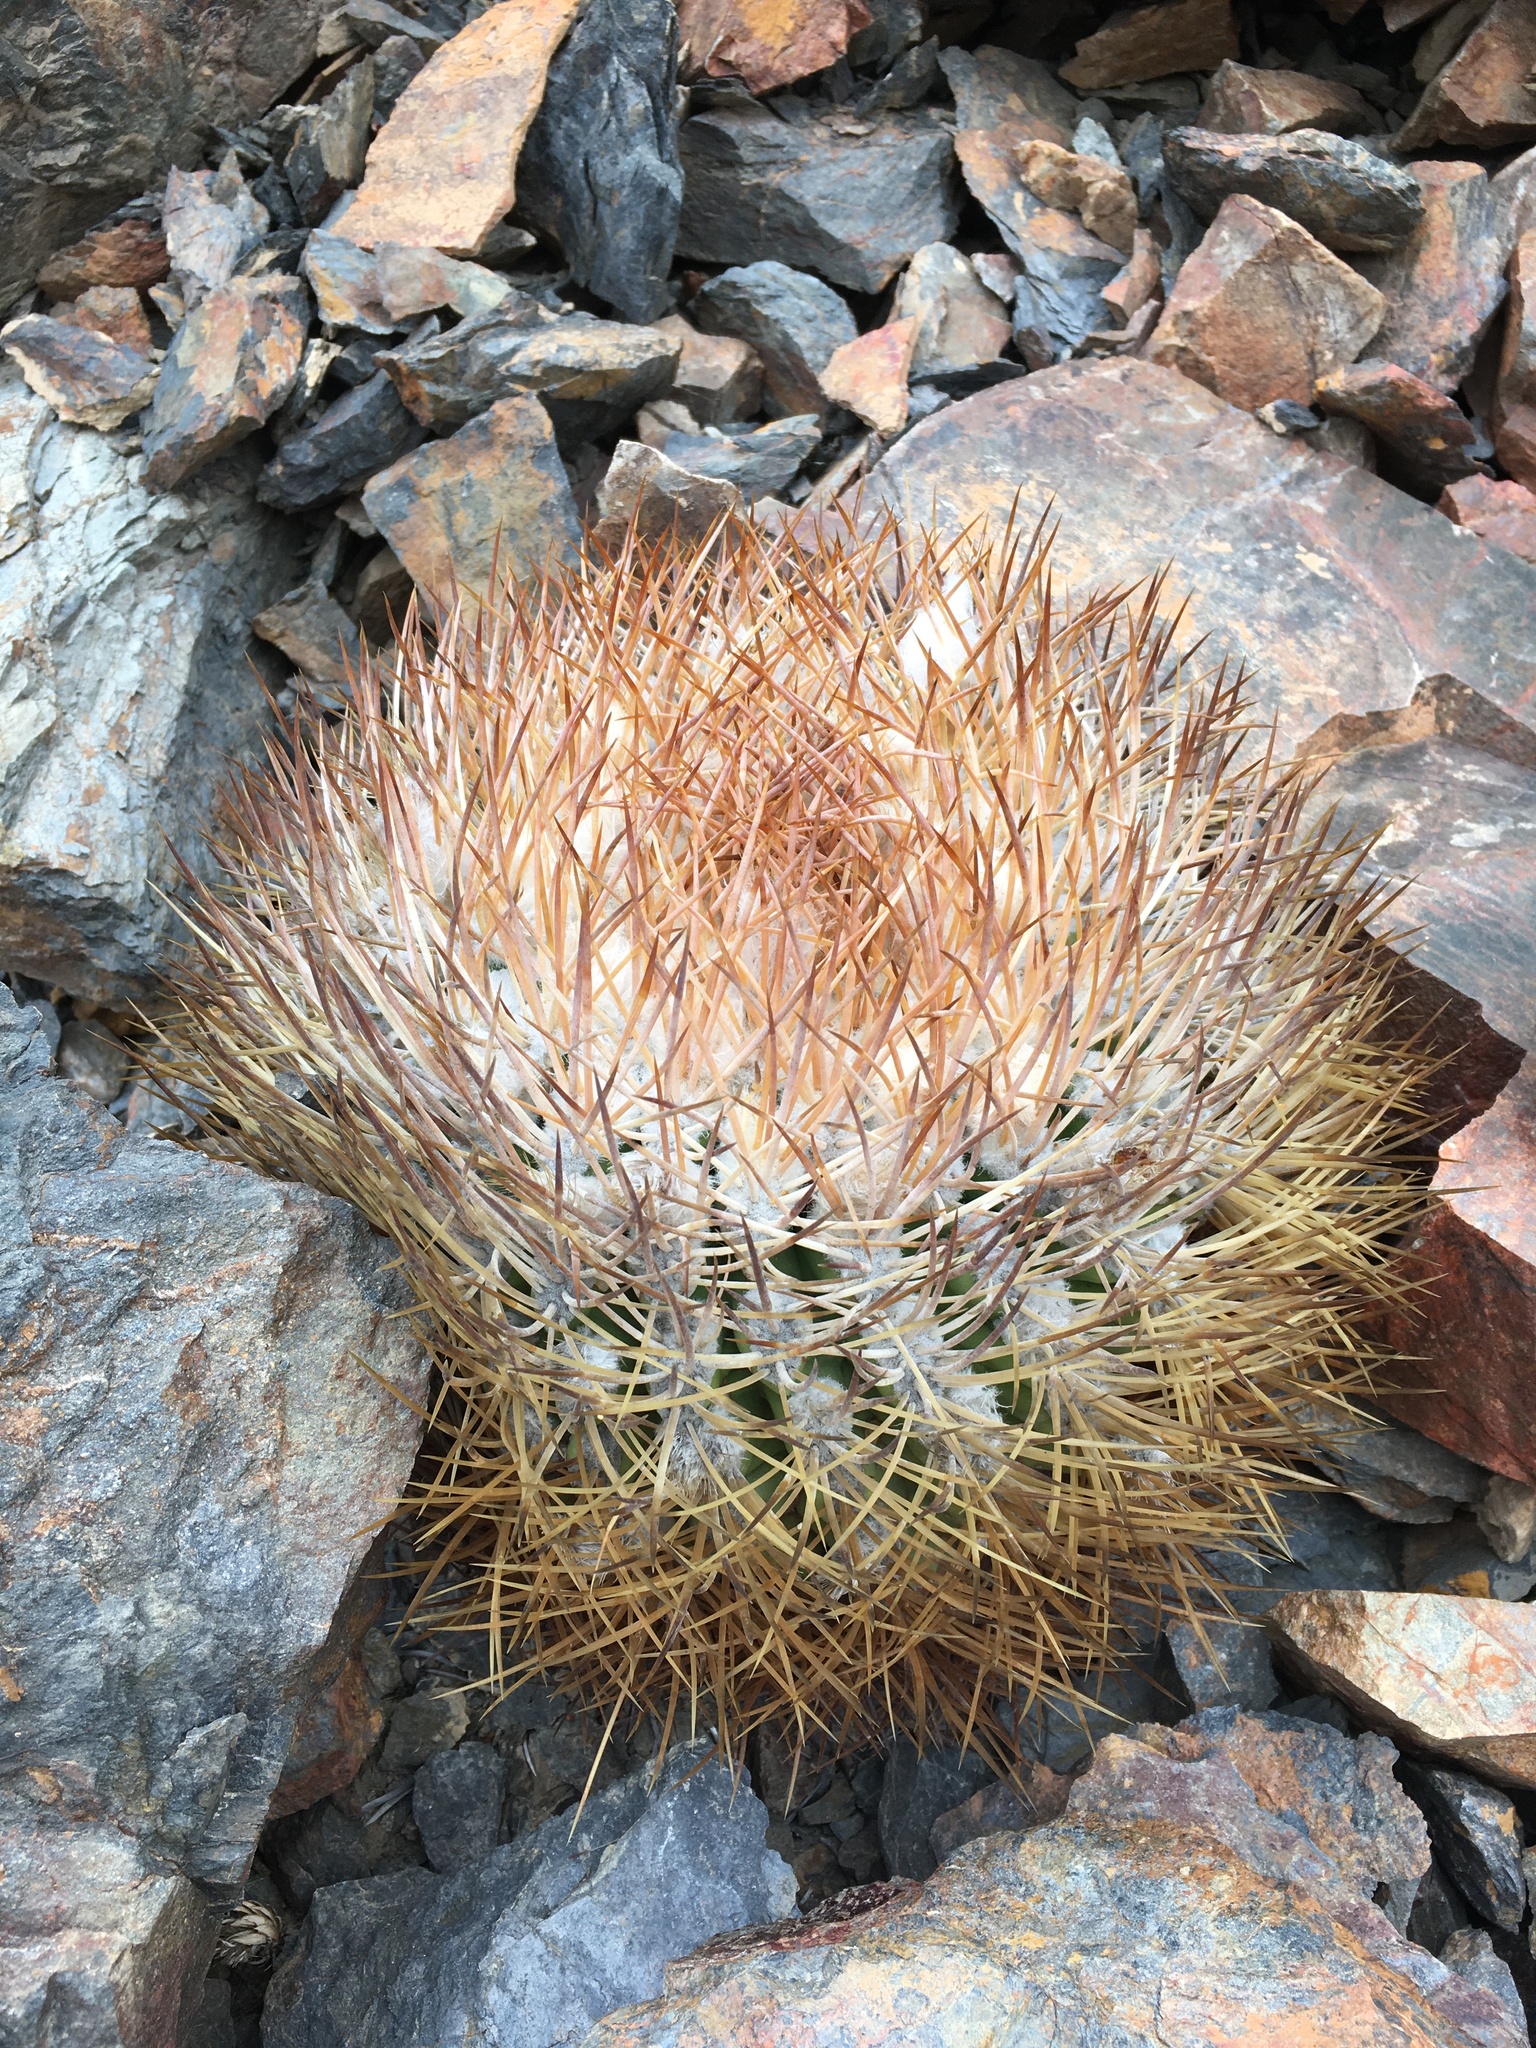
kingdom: Plantae
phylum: Tracheophyta
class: Magnoliopsida
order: Caryophyllales
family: Cactaceae
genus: Eriosyce
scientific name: Eriosyce rodentiophila
